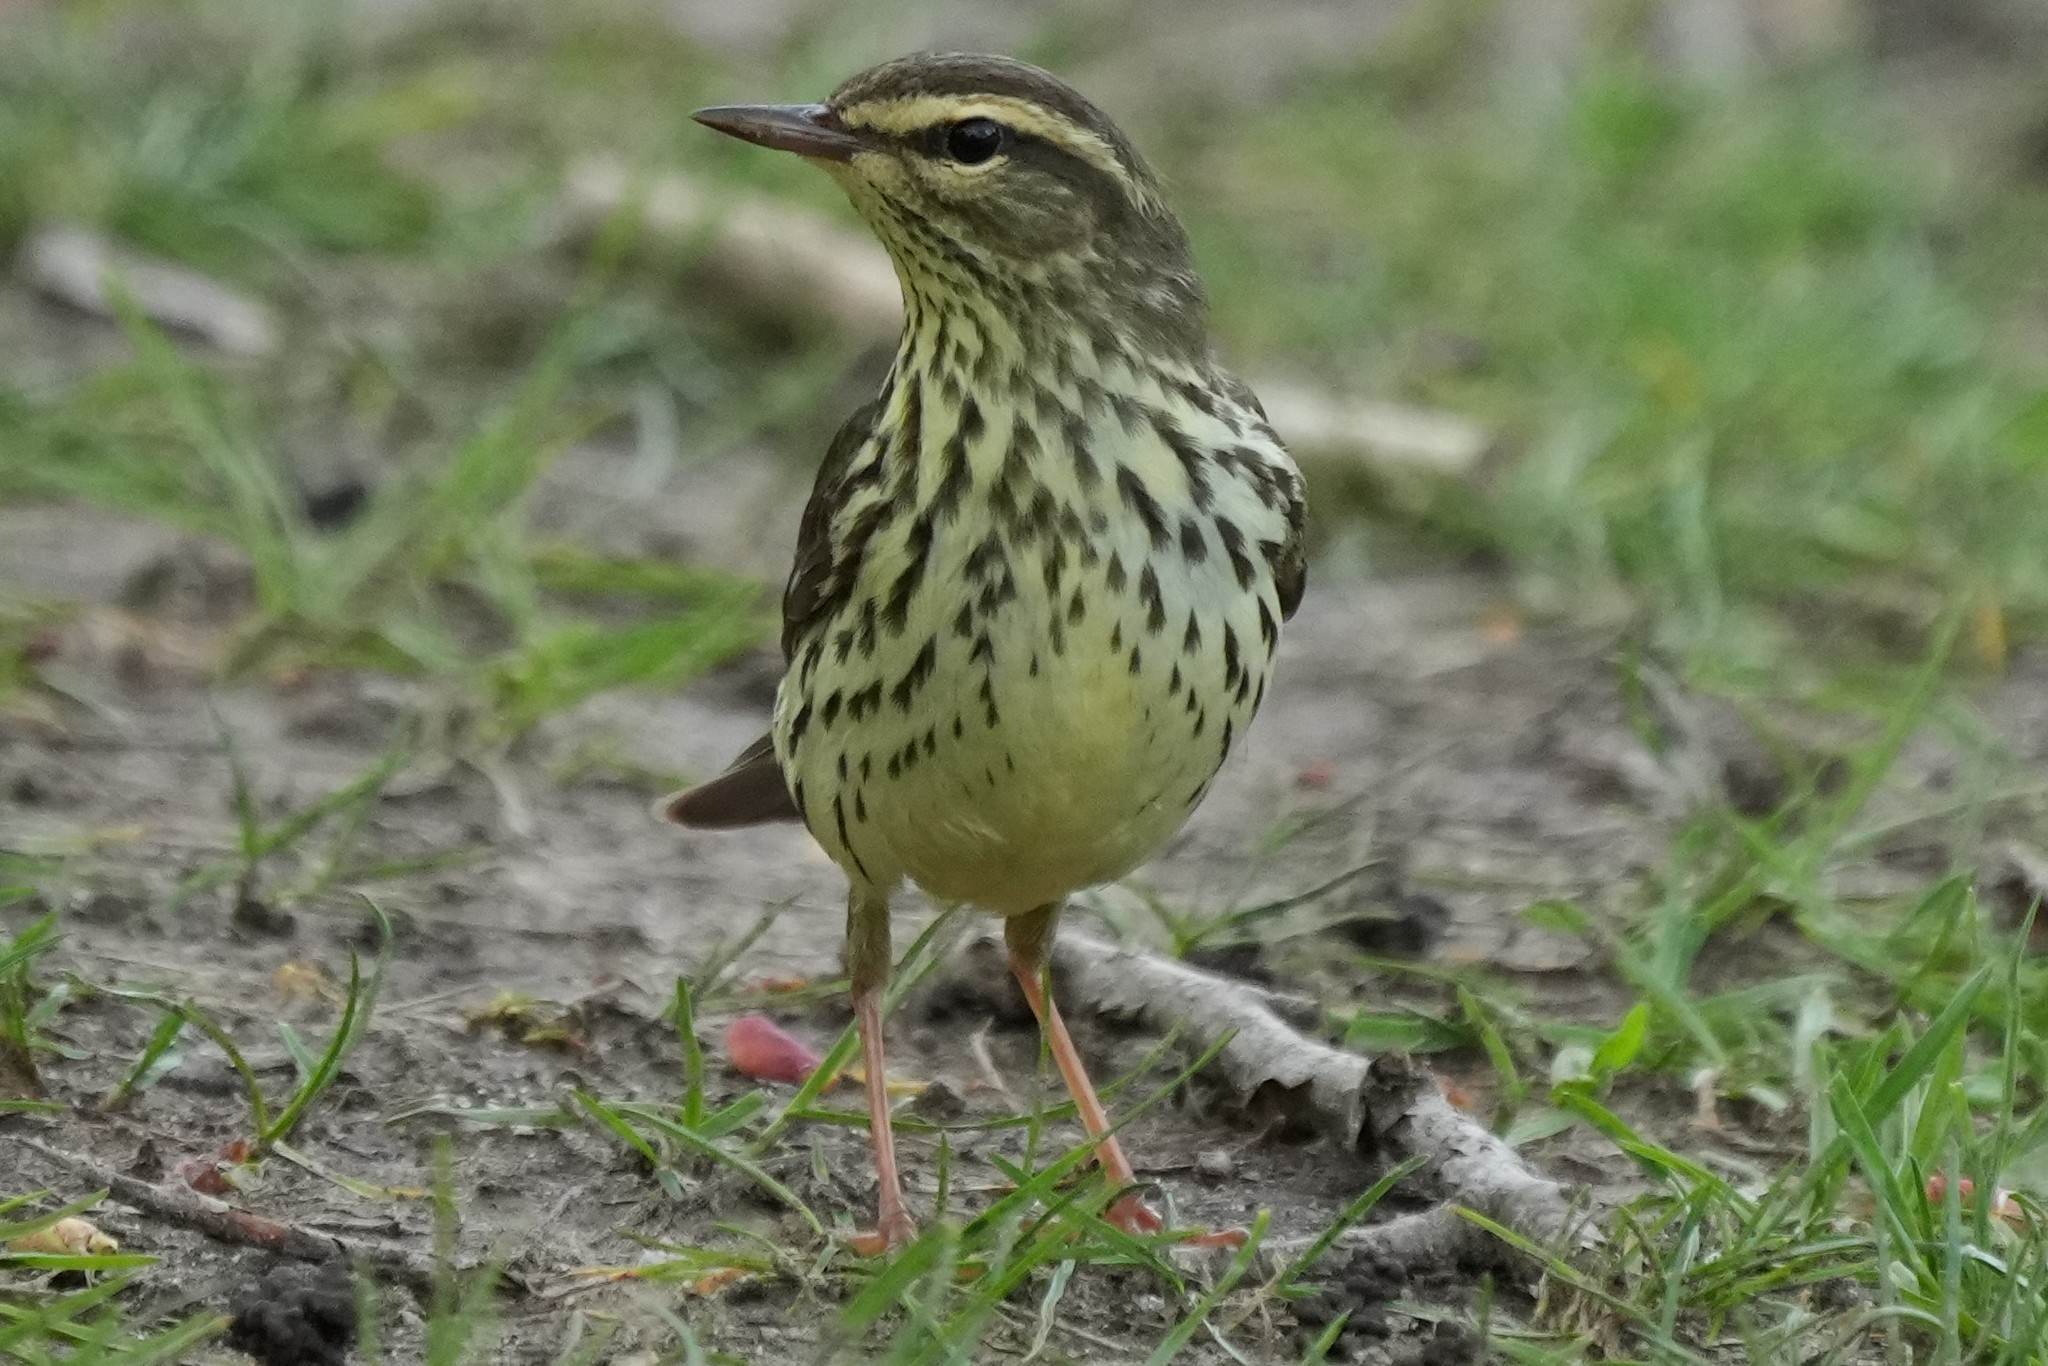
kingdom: Animalia
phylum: Chordata
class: Aves
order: Passeriformes
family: Parulidae
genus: Parkesia
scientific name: Parkesia noveboracensis
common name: Northern waterthrush
